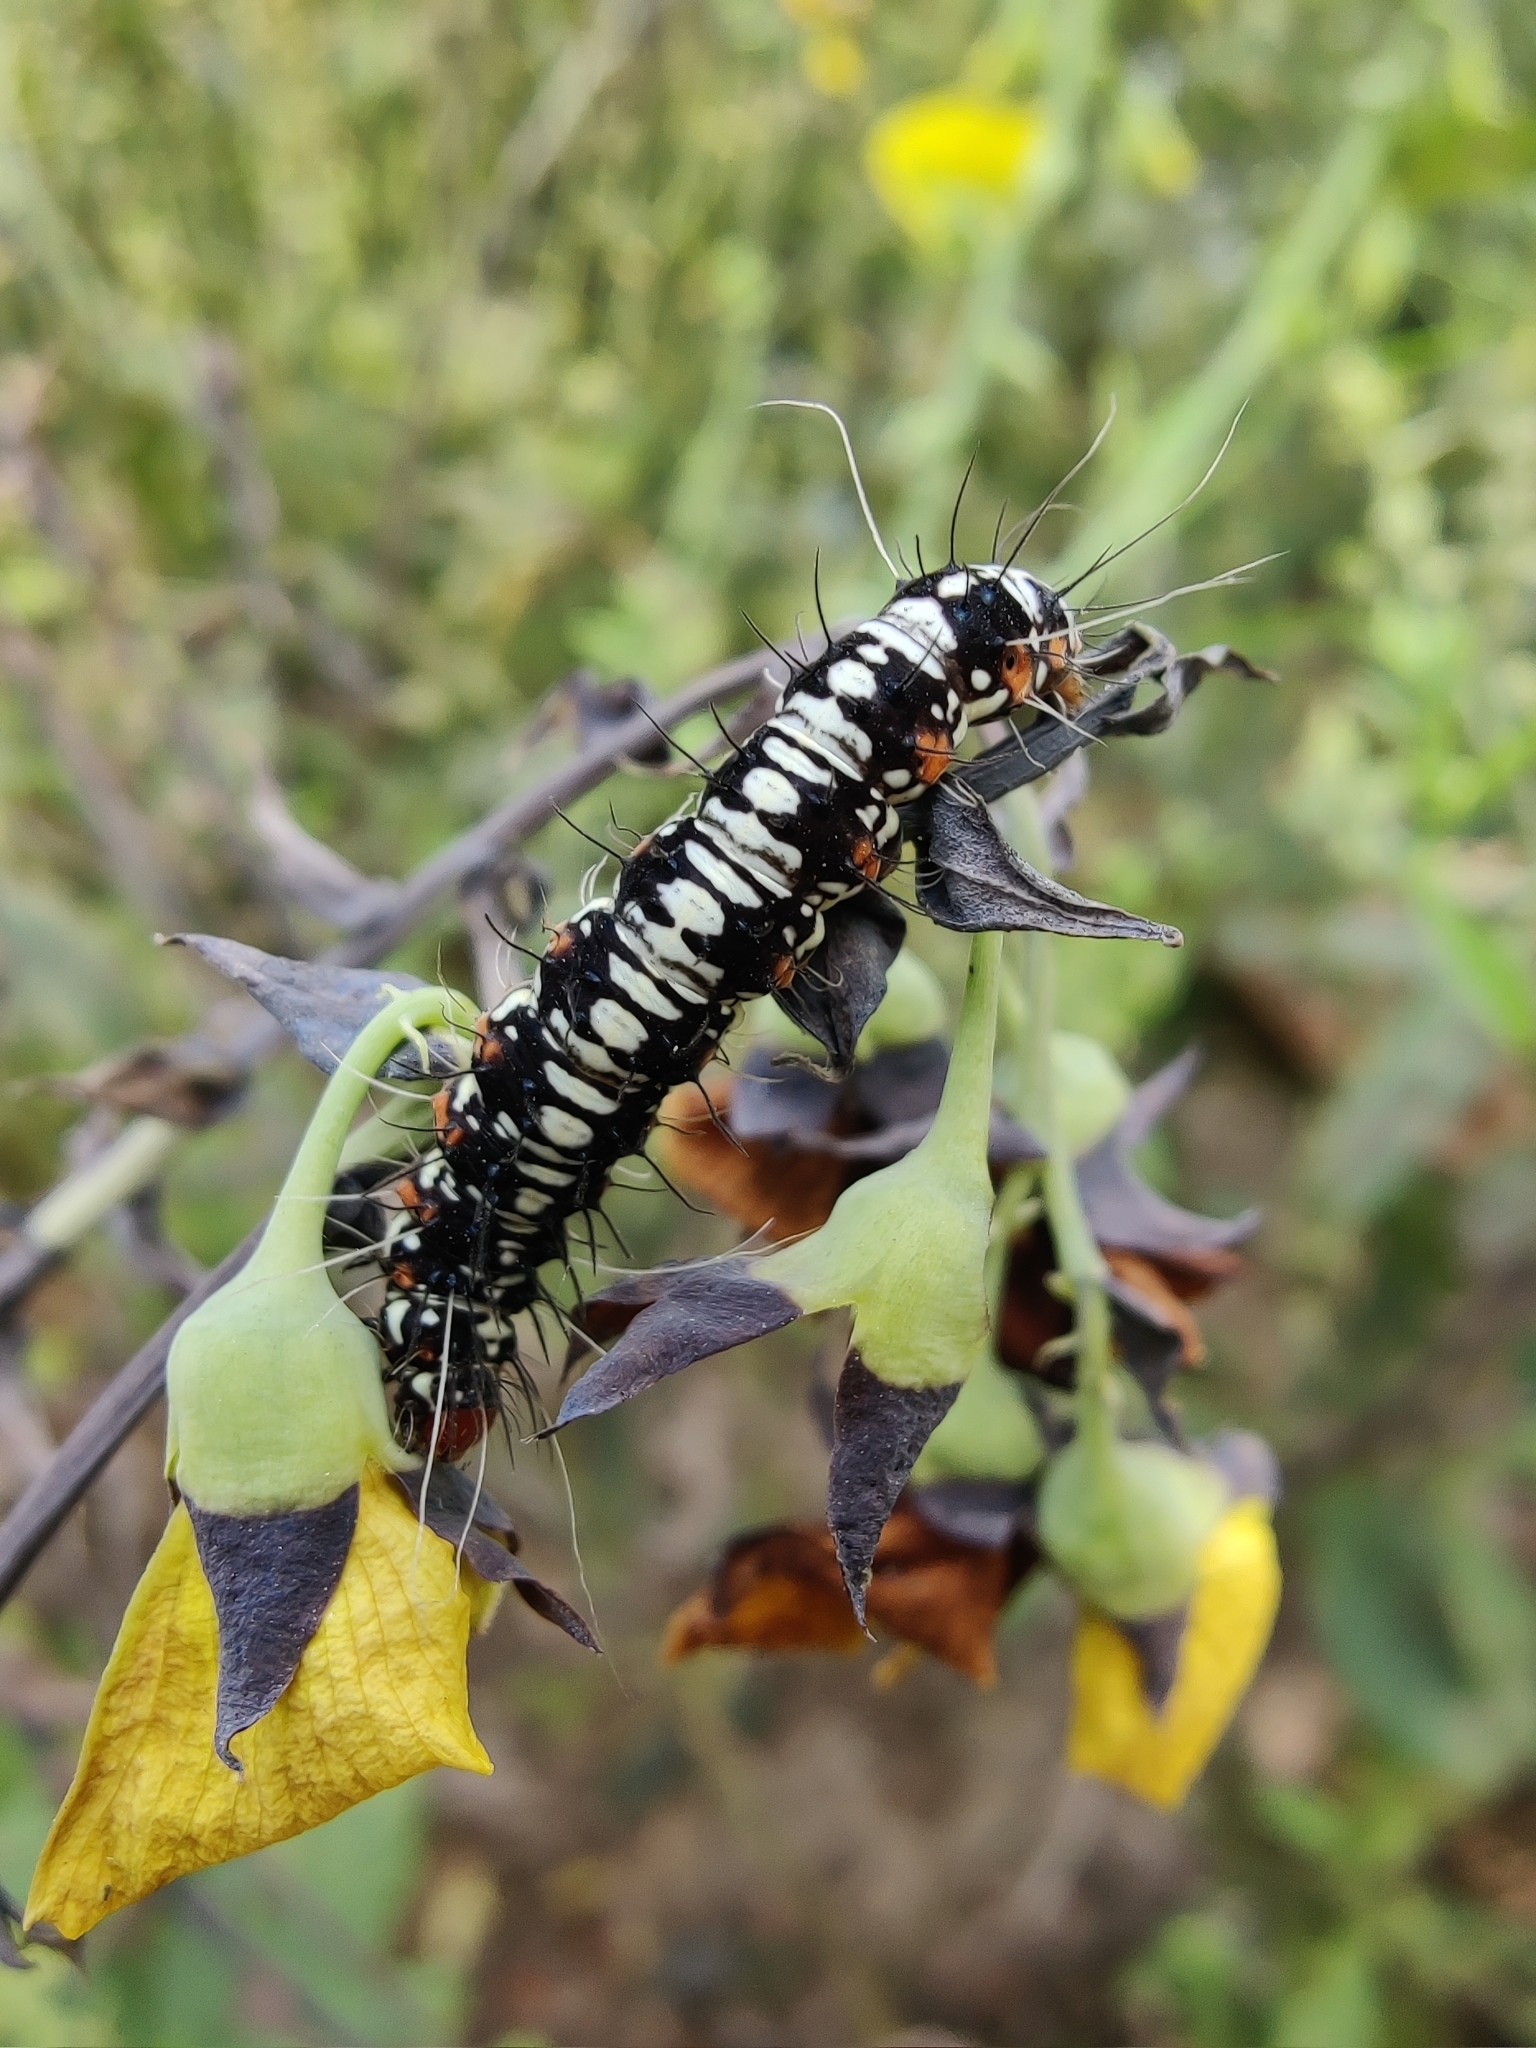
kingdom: Animalia
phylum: Arthropoda
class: Insecta
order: Lepidoptera
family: Erebidae
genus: Argina
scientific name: Argina astrea
